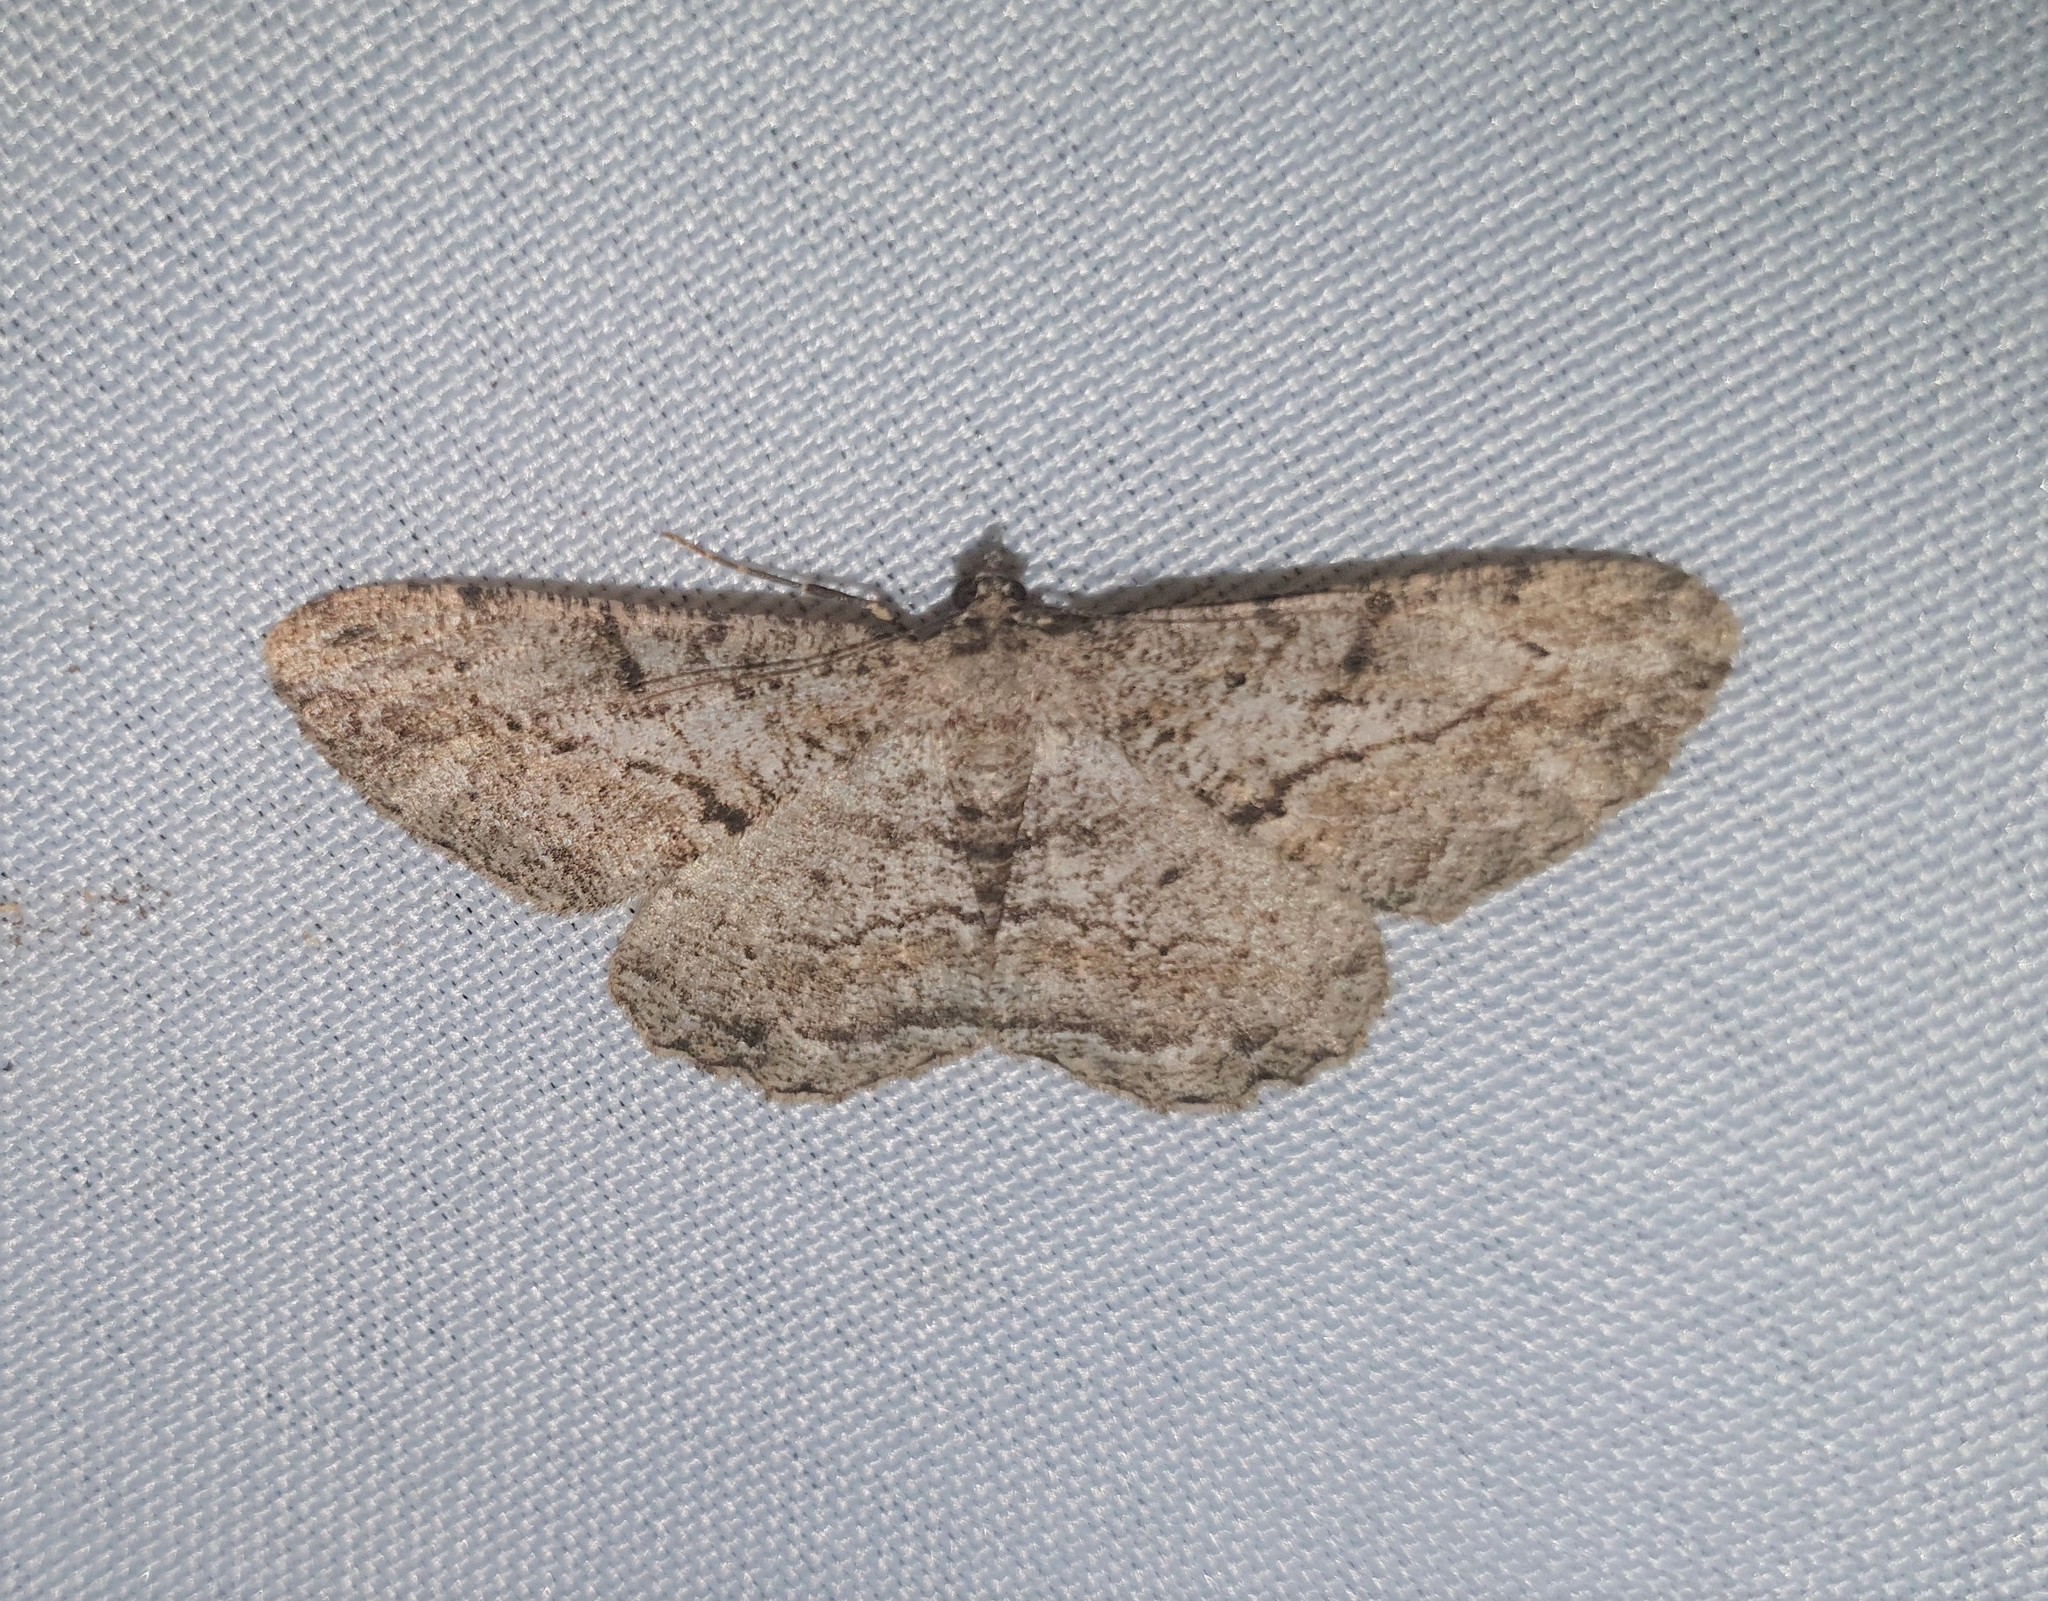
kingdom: Animalia
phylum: Arthropoda
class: Insecta
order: Lepidoptera
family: Geometridae
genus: Peribatodes
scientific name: Peribatodes rhomboidaria
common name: Willow beauty
